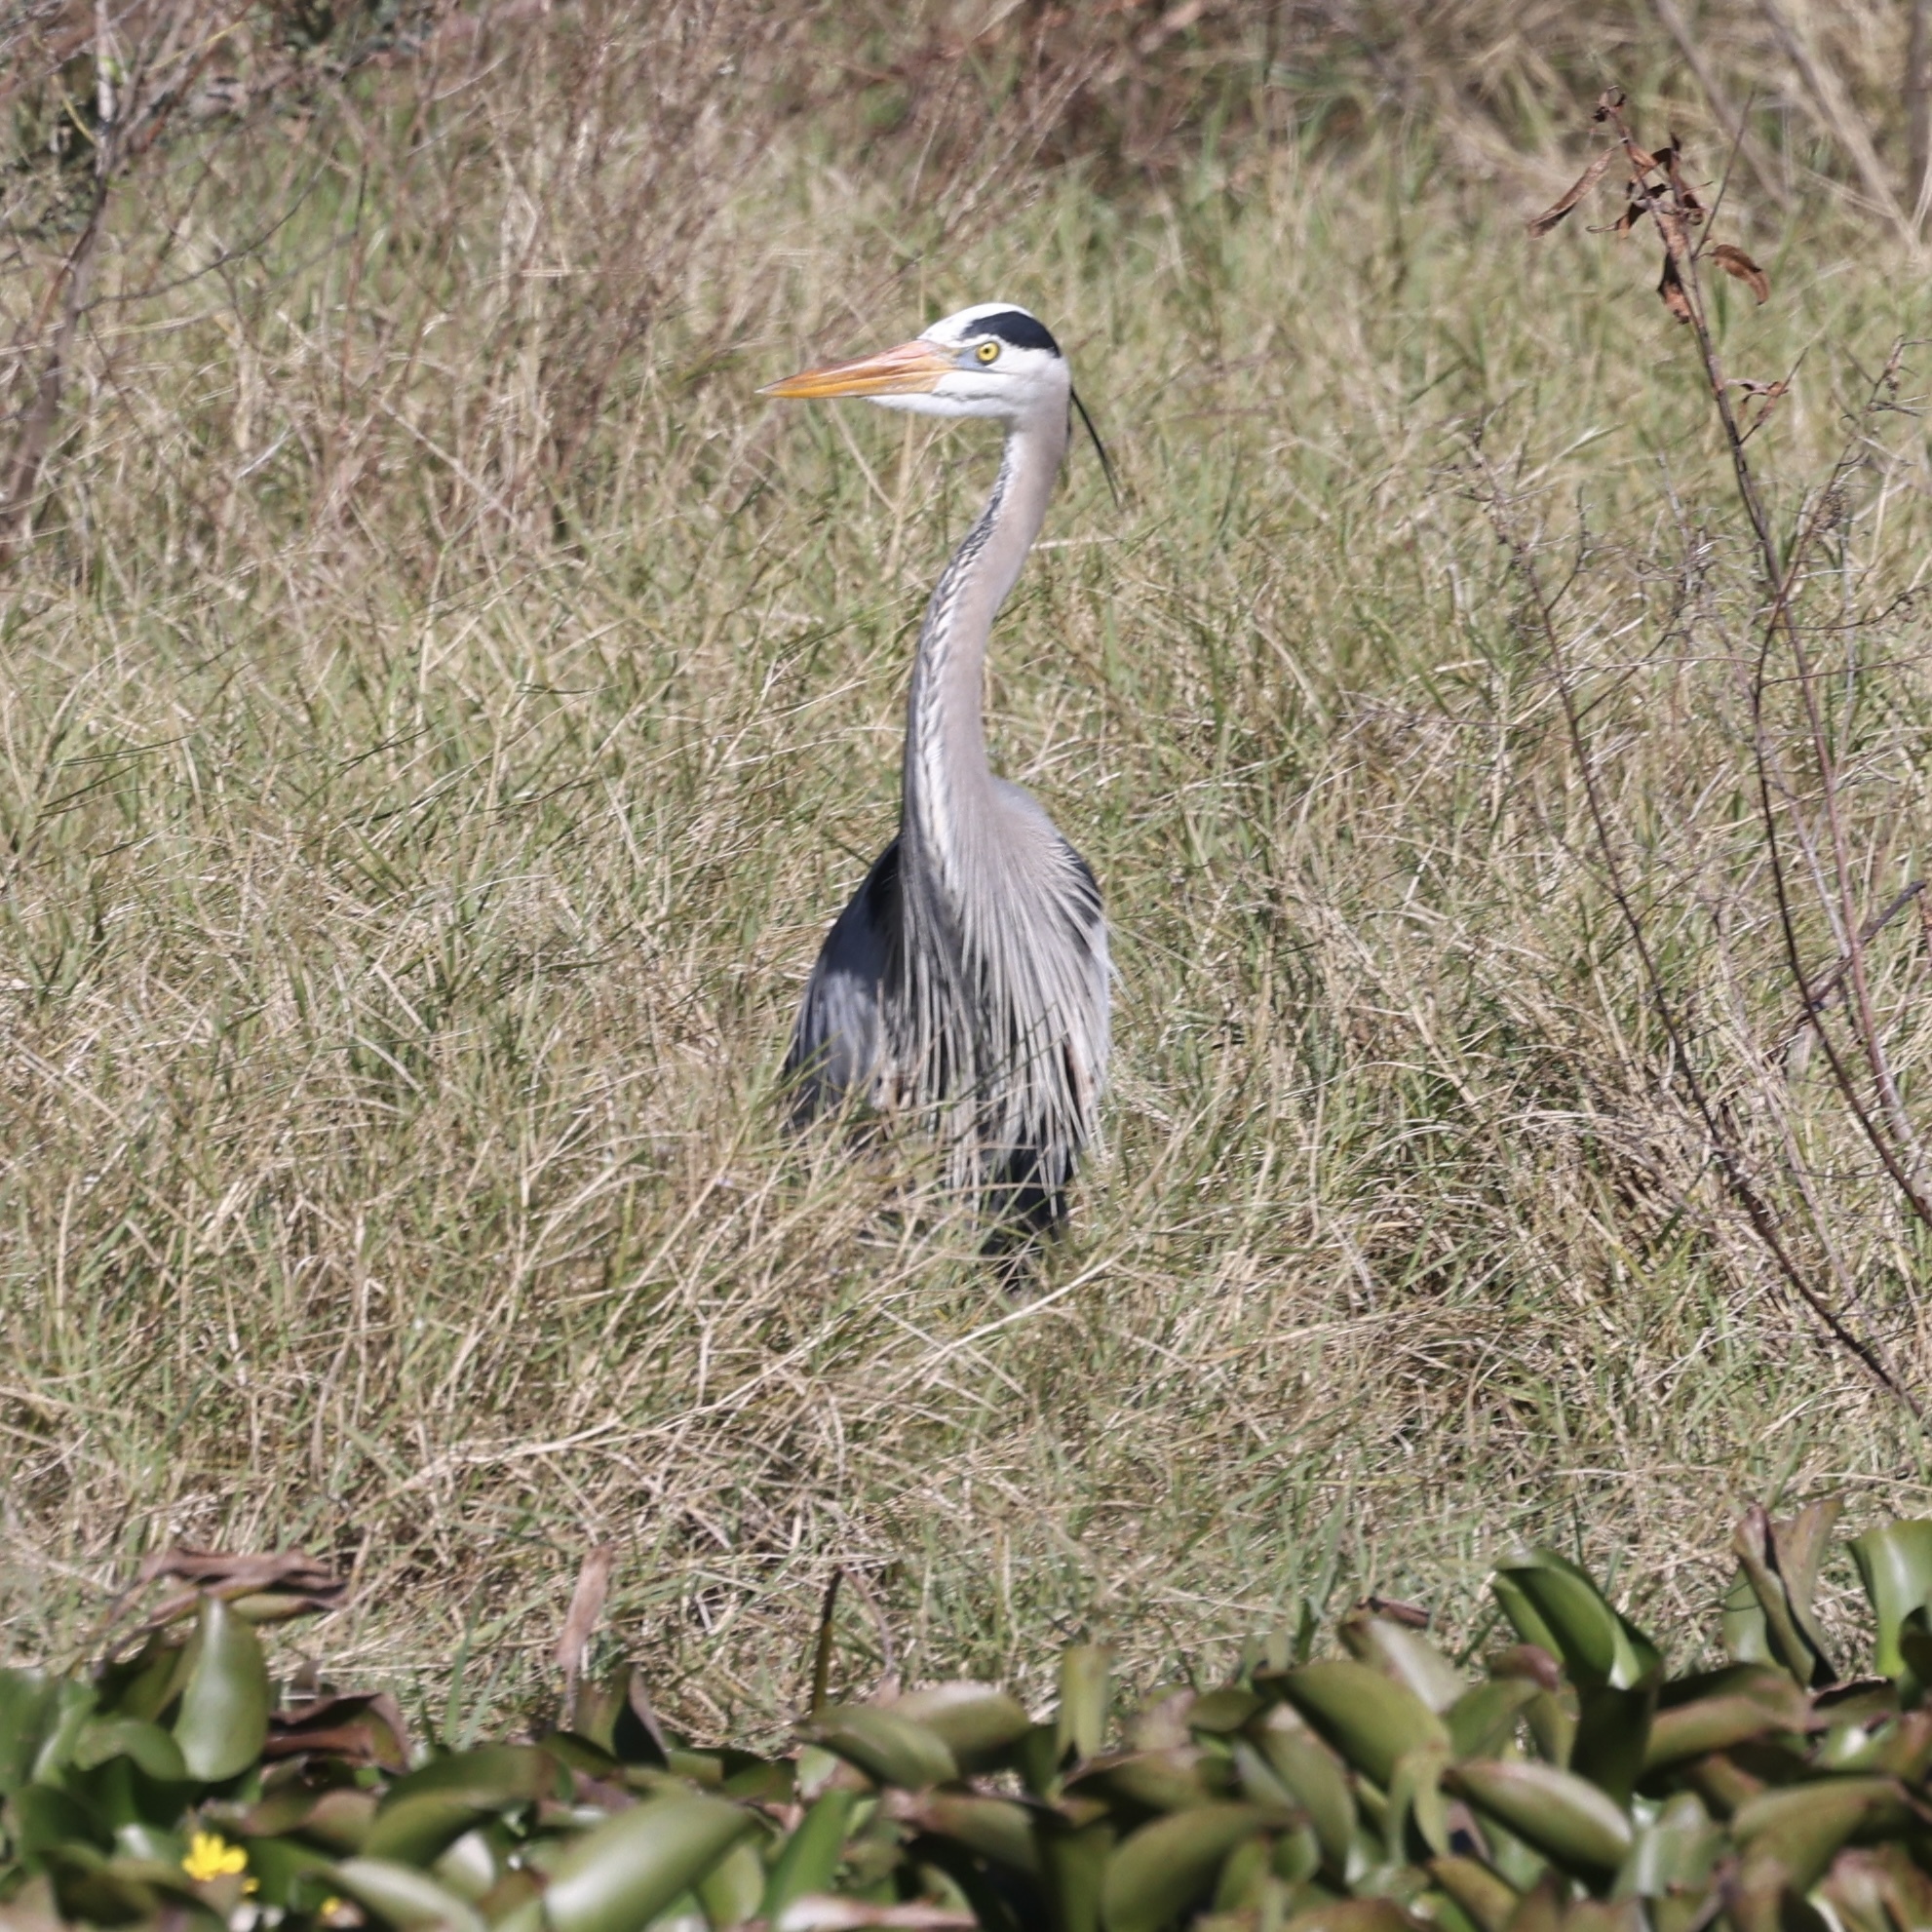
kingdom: Animalia
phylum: Chordata
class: Aves
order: Pelecaniformes
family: Ardeidae
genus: Ardea
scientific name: Ardea herodias
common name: Great blue heron
